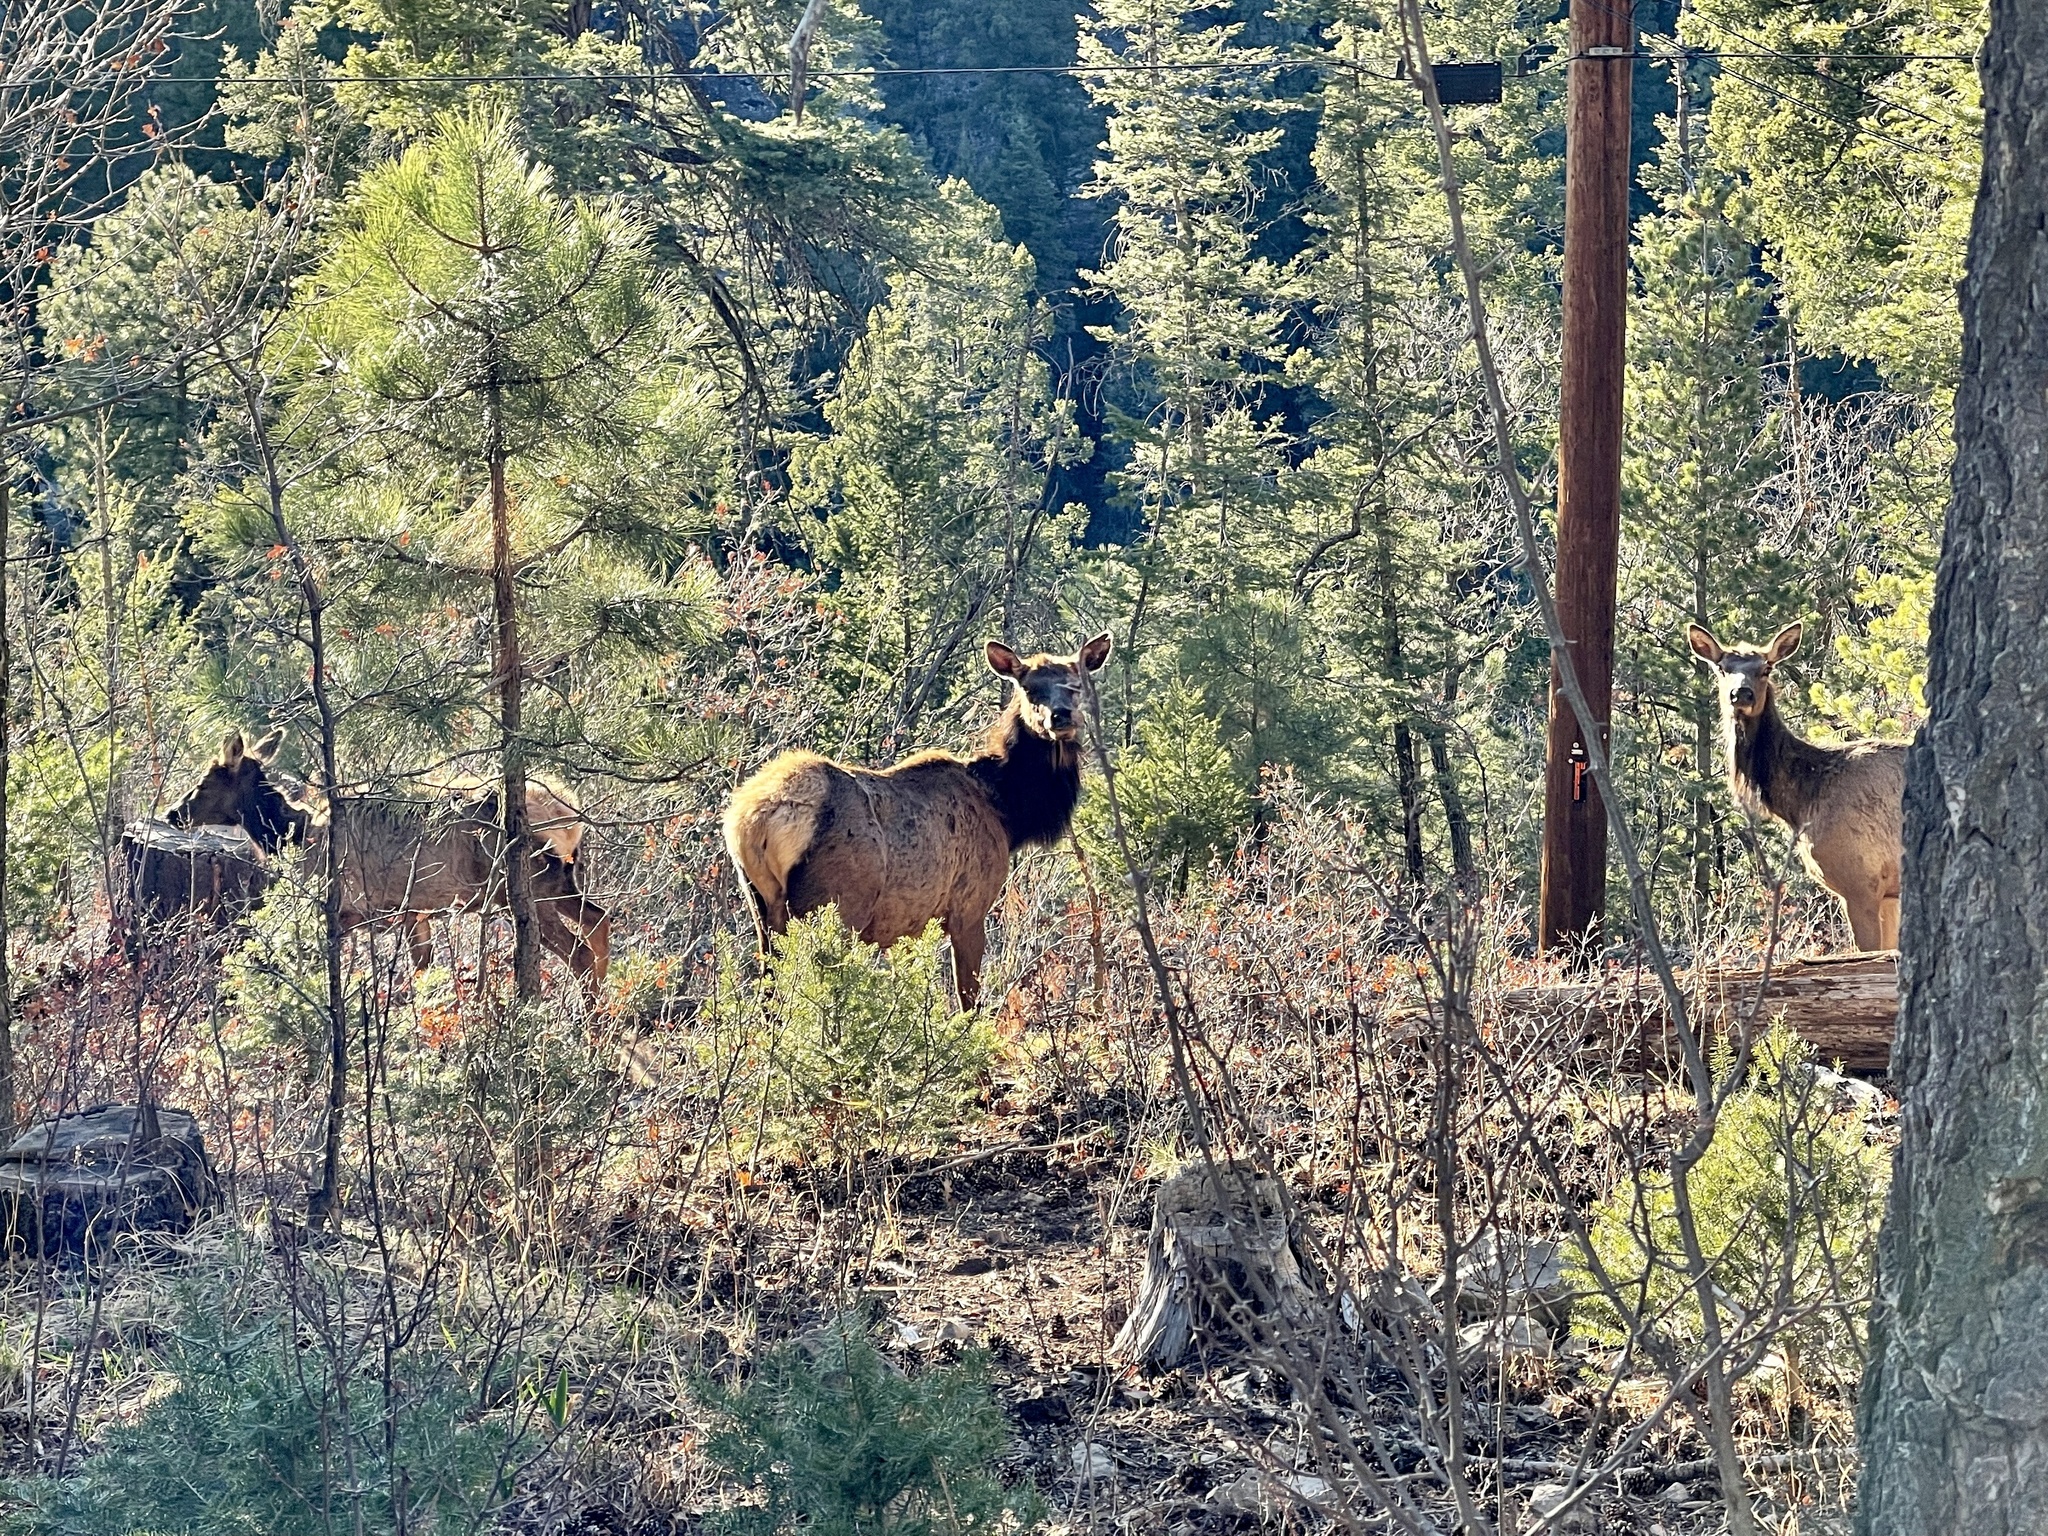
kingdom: Animalia
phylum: Chordata
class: Mammalia
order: Artiodactyla
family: Cervidae
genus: Cervus
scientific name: Cervus elaphus
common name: Red deer
